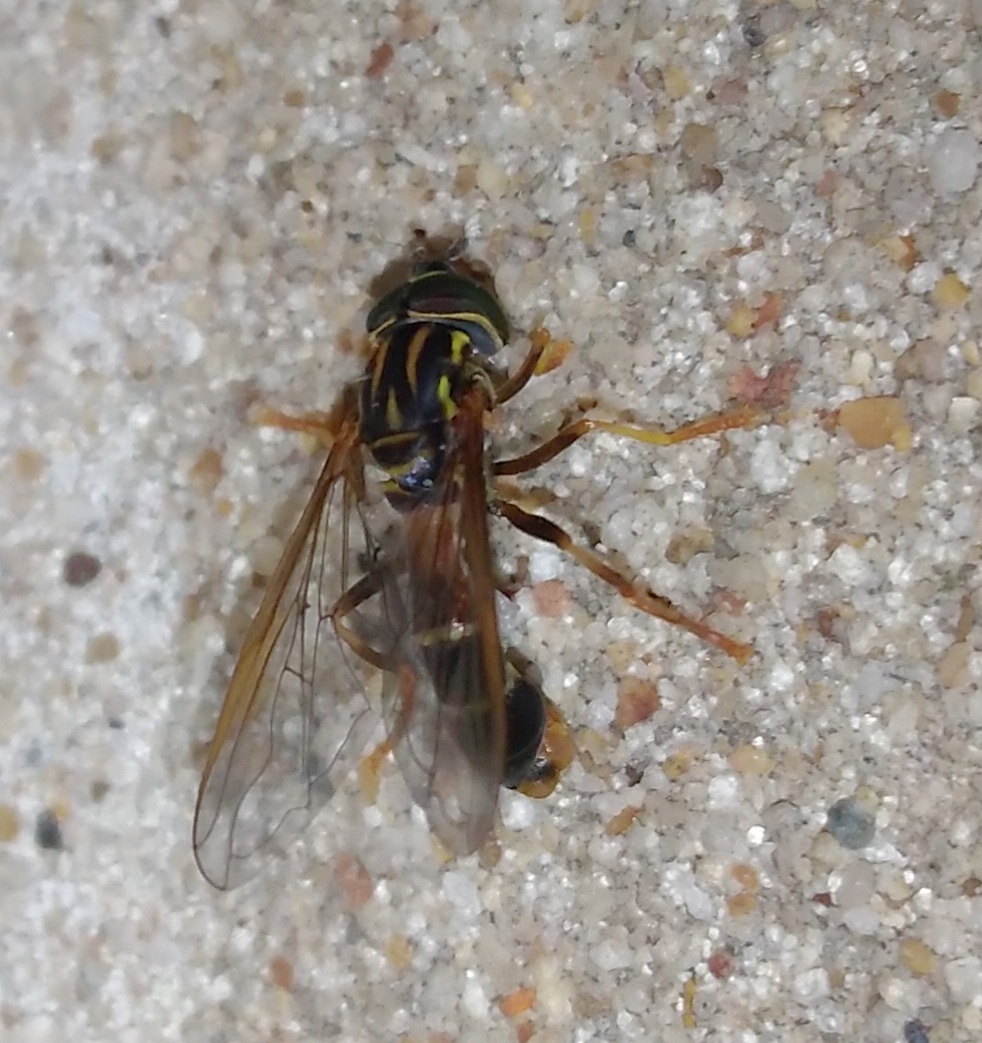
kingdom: Animalia
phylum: Arthropoda
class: Insecta
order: Diptera
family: Syrphidae
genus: Mimocalla
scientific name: Mimocalla bonariensis
